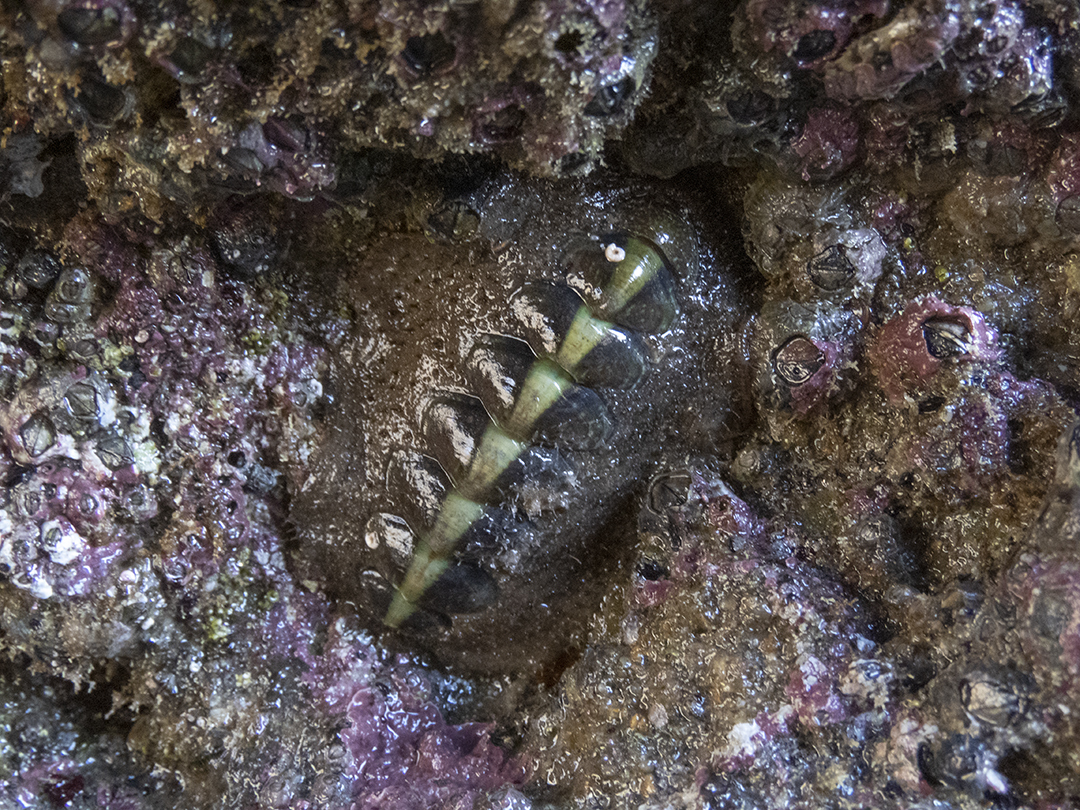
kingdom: Animalia
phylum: Mollusca
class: Polyplacophora
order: Chitonida
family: Mopaliidae
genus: Plaxiphora
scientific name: Plaxiphora obtecta
